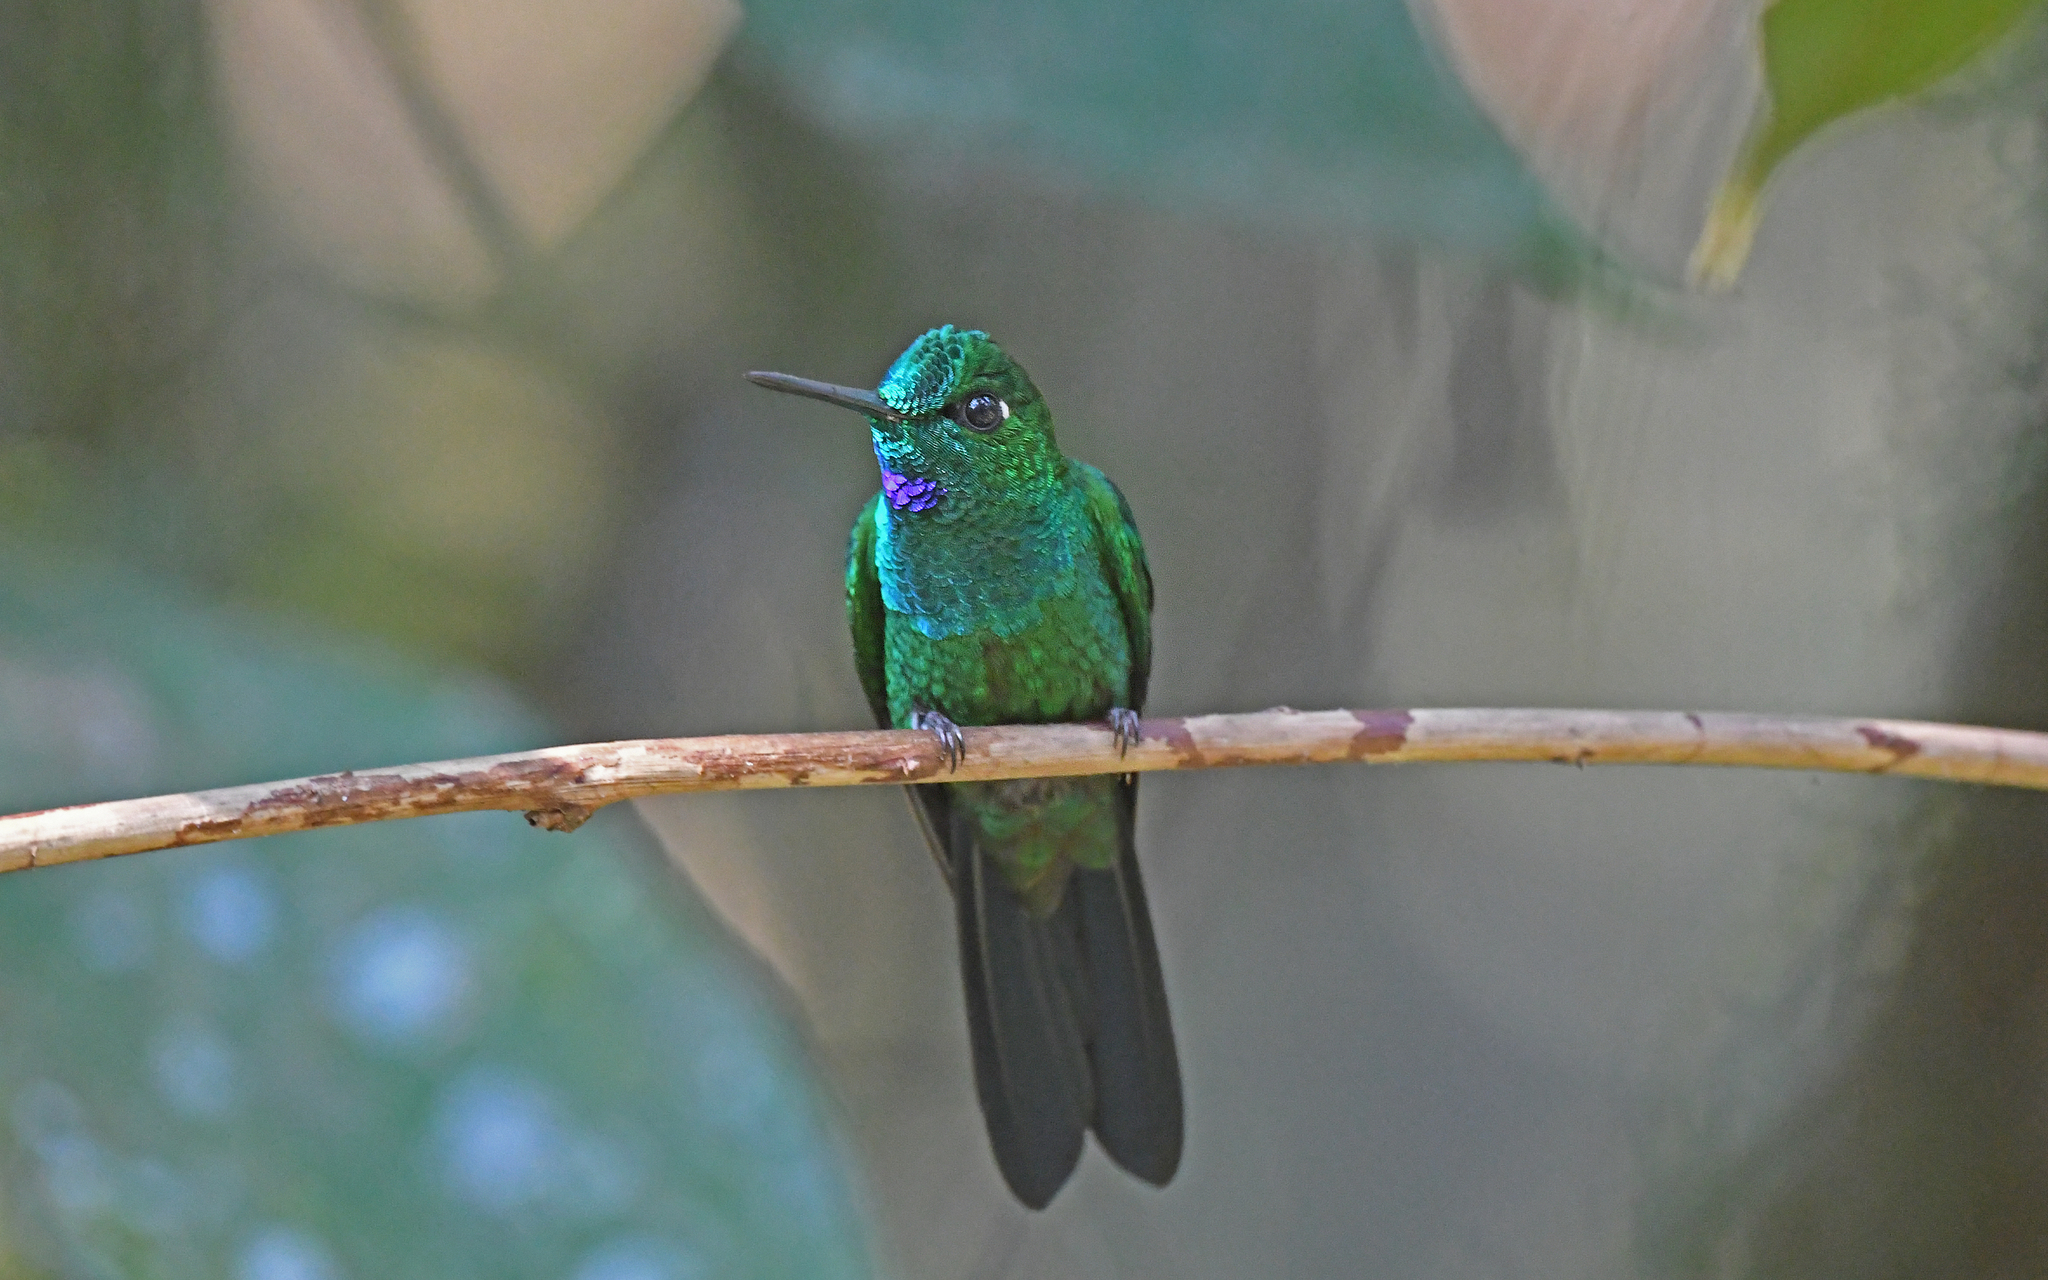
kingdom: Animalia
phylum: Chordata
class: Aves
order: Apodiformes
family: Trochilidae
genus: Heliodoxa
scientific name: Heliodoxa jacula
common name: Green-crowned brilliant
